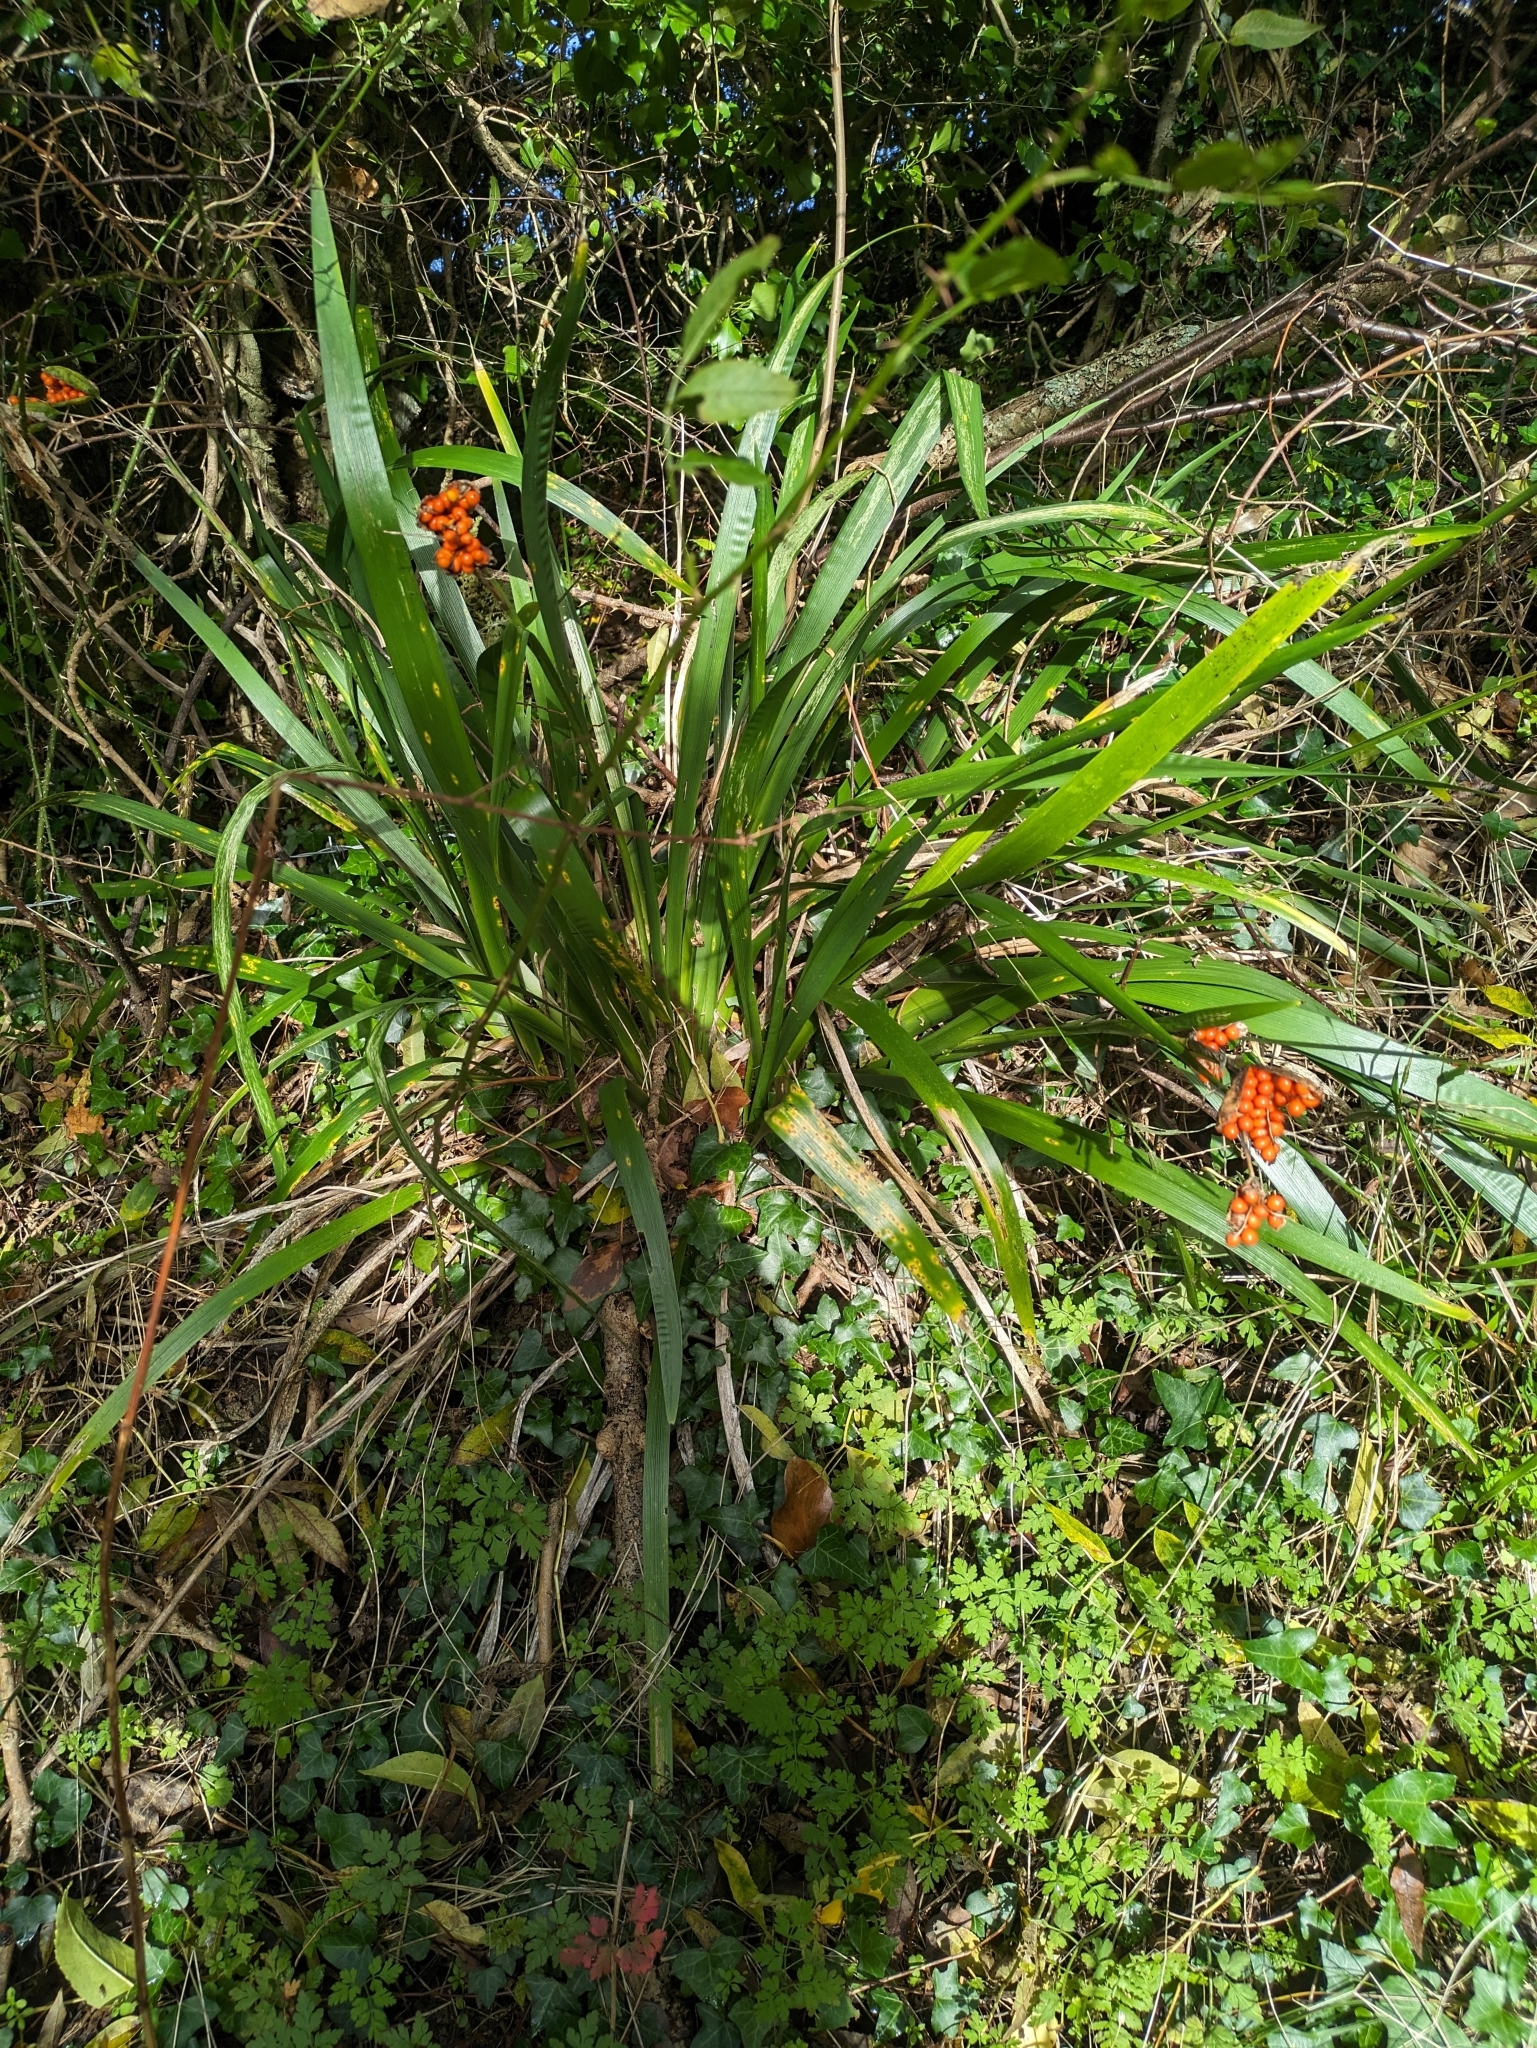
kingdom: Plantae
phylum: Tracheophyta
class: Liliopsida
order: Asparagales
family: Iridaceae
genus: Iris
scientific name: Iris foetidissima
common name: Stinking iris
